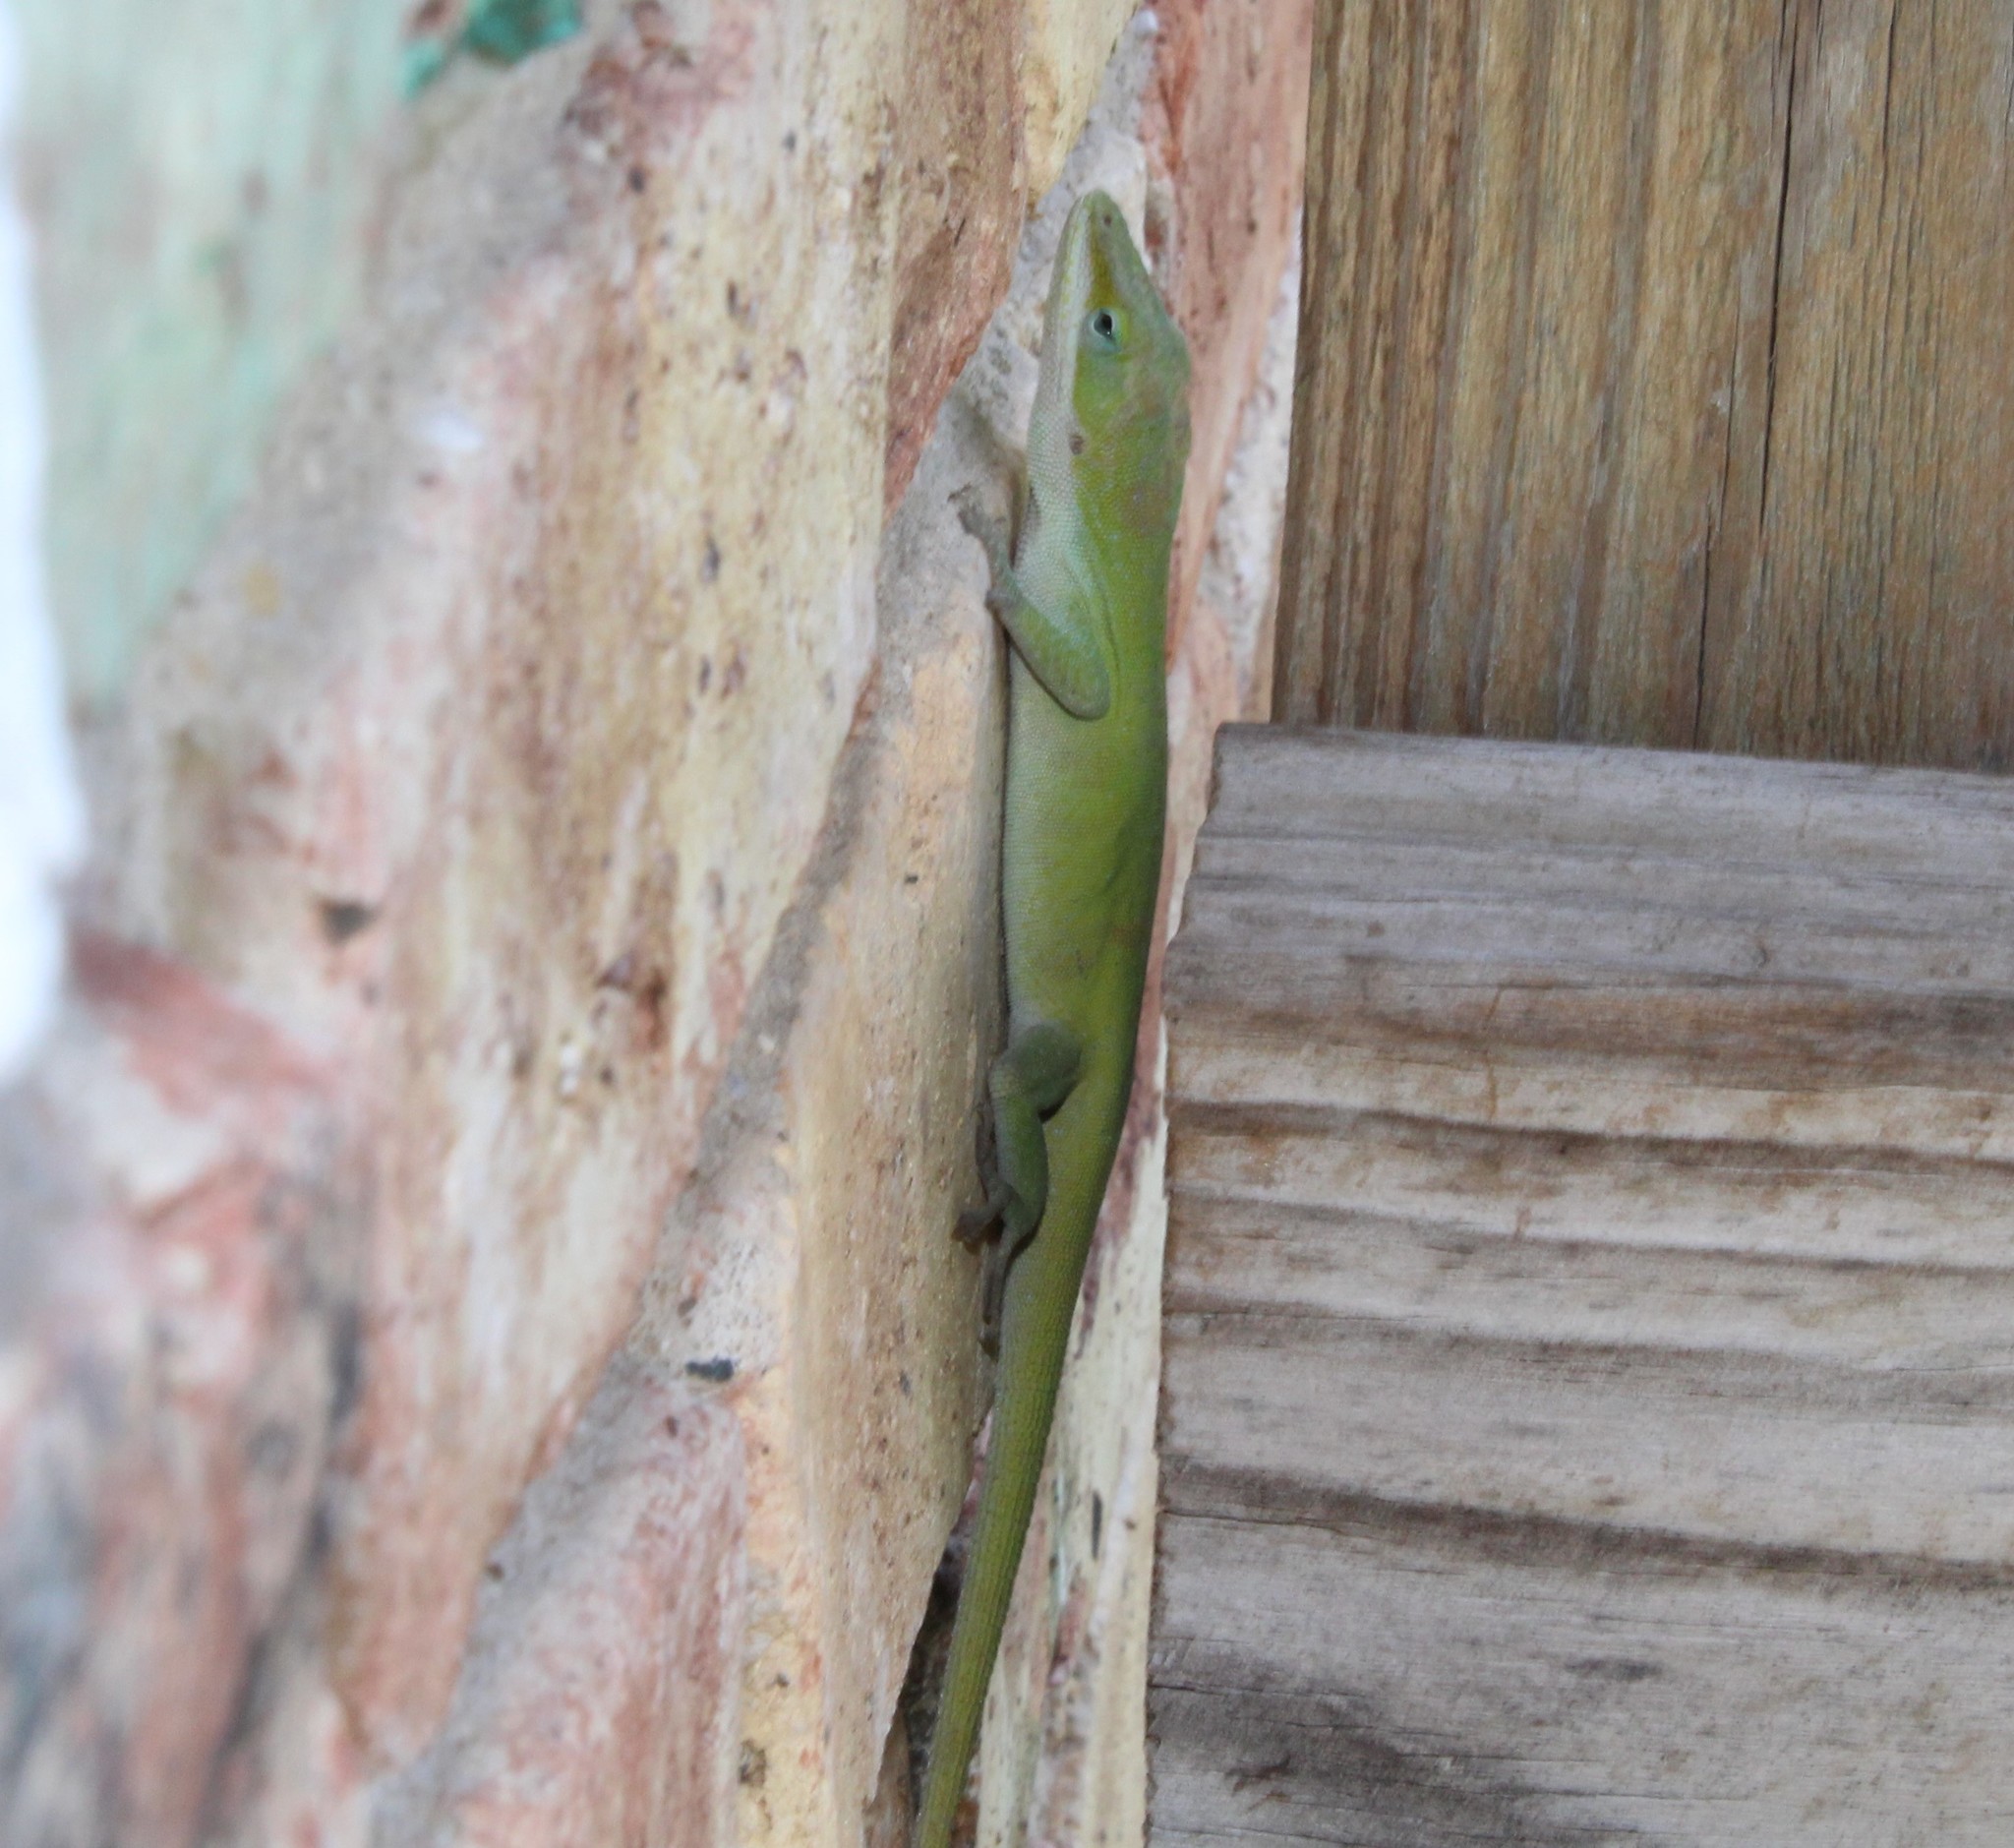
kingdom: Animalia
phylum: Chordata
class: Squamata
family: Dactyloidae
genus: Anolis
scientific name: Anolis carolinensis
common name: Green anole
